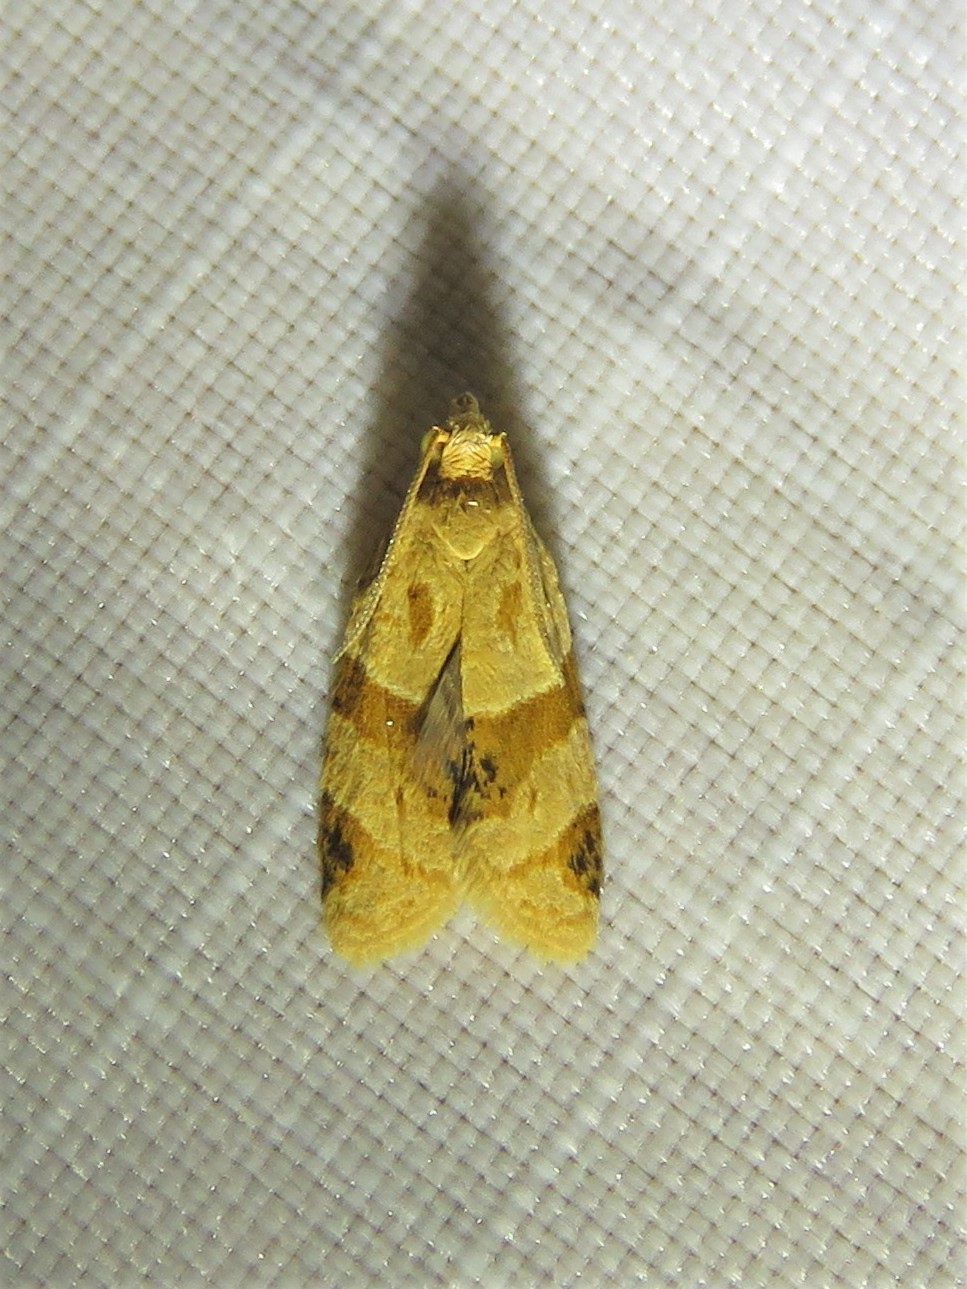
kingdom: Animalia
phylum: Arthropoda
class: Insecta
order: Lepidoptera
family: Tortricidae
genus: Clepsis
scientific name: Clepsis peritana
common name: Garden tortrix
